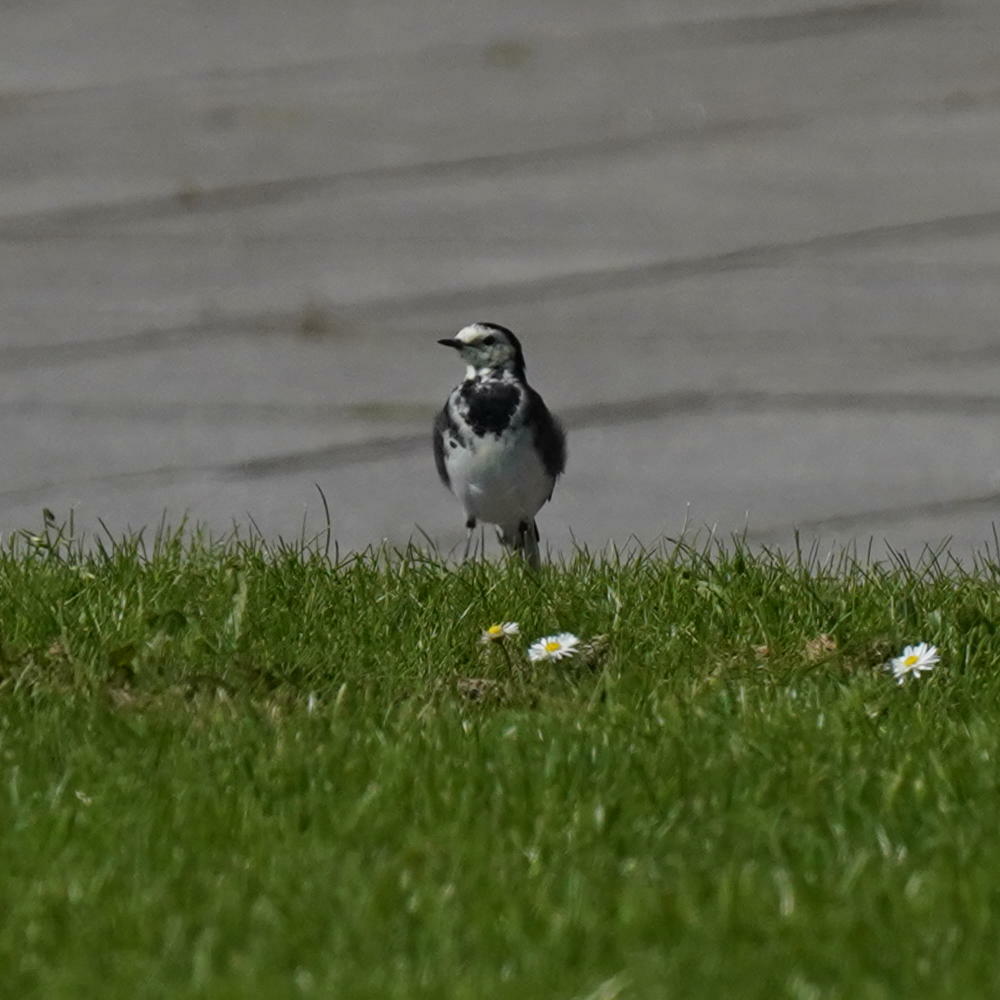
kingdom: Animalia
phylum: Chordata
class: Aves
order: Passeriformes
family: Motacillidae
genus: Motacilla
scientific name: Motacilla alba
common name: White wagtail
